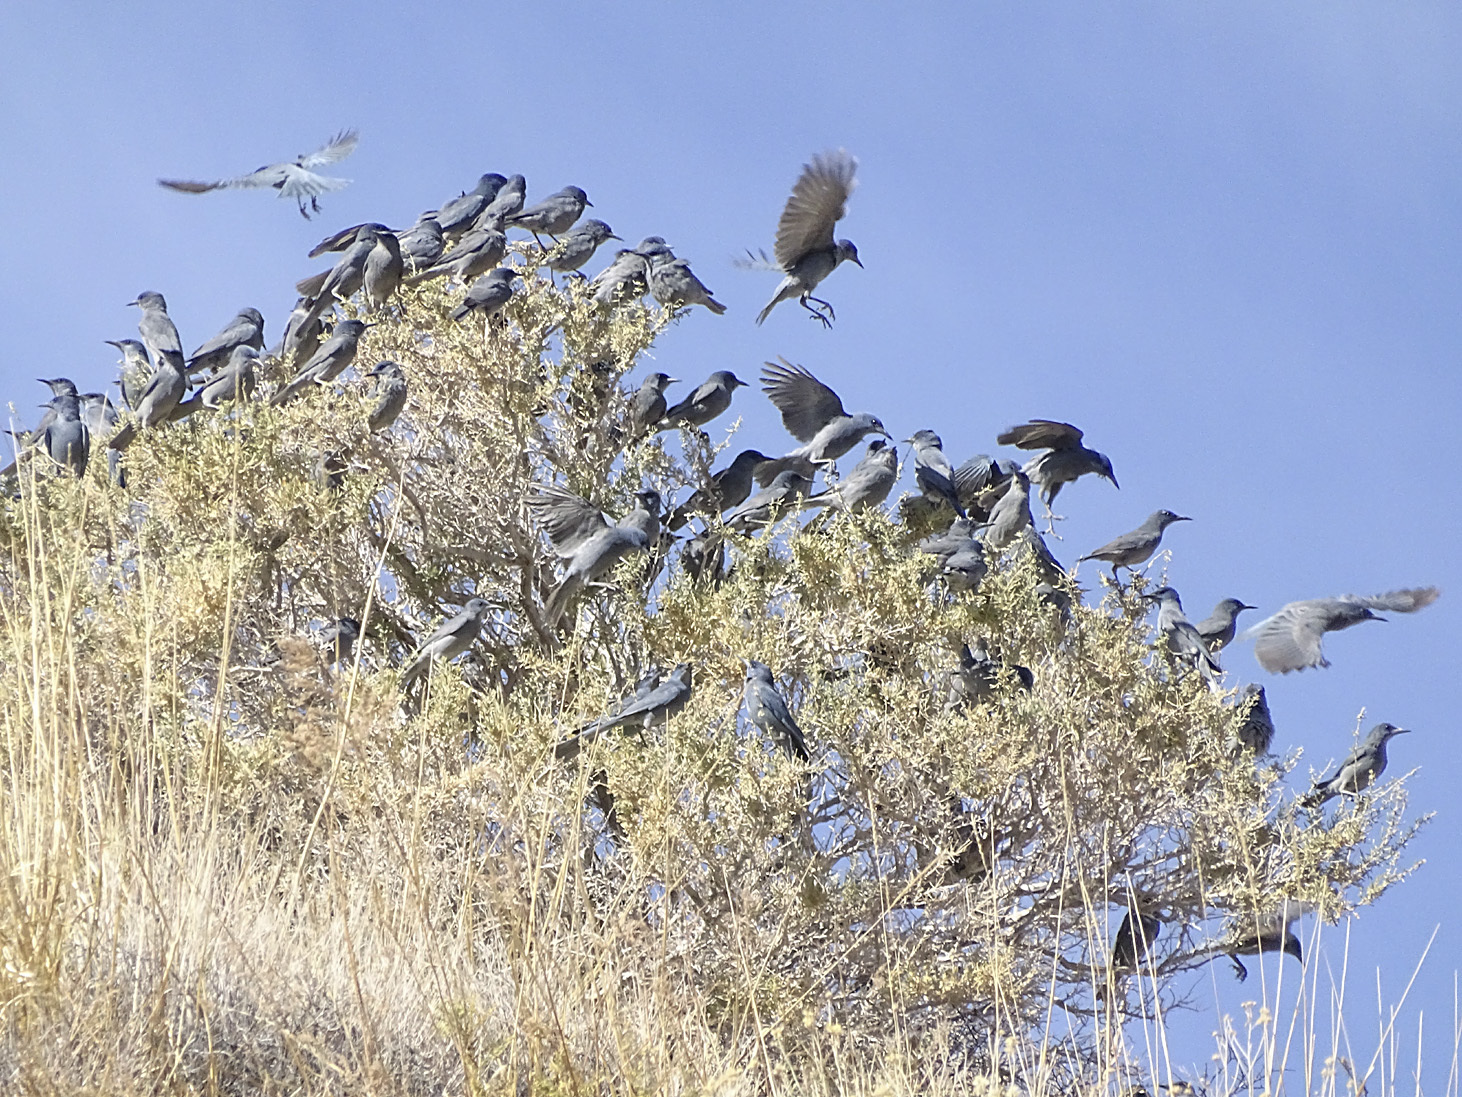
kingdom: Animalia
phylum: Chordata
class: Aves
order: Passeriformes
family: Corvidae
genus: Gymnorhinus
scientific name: Gymnorhinus cyanocephalus
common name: Pinyon jay
